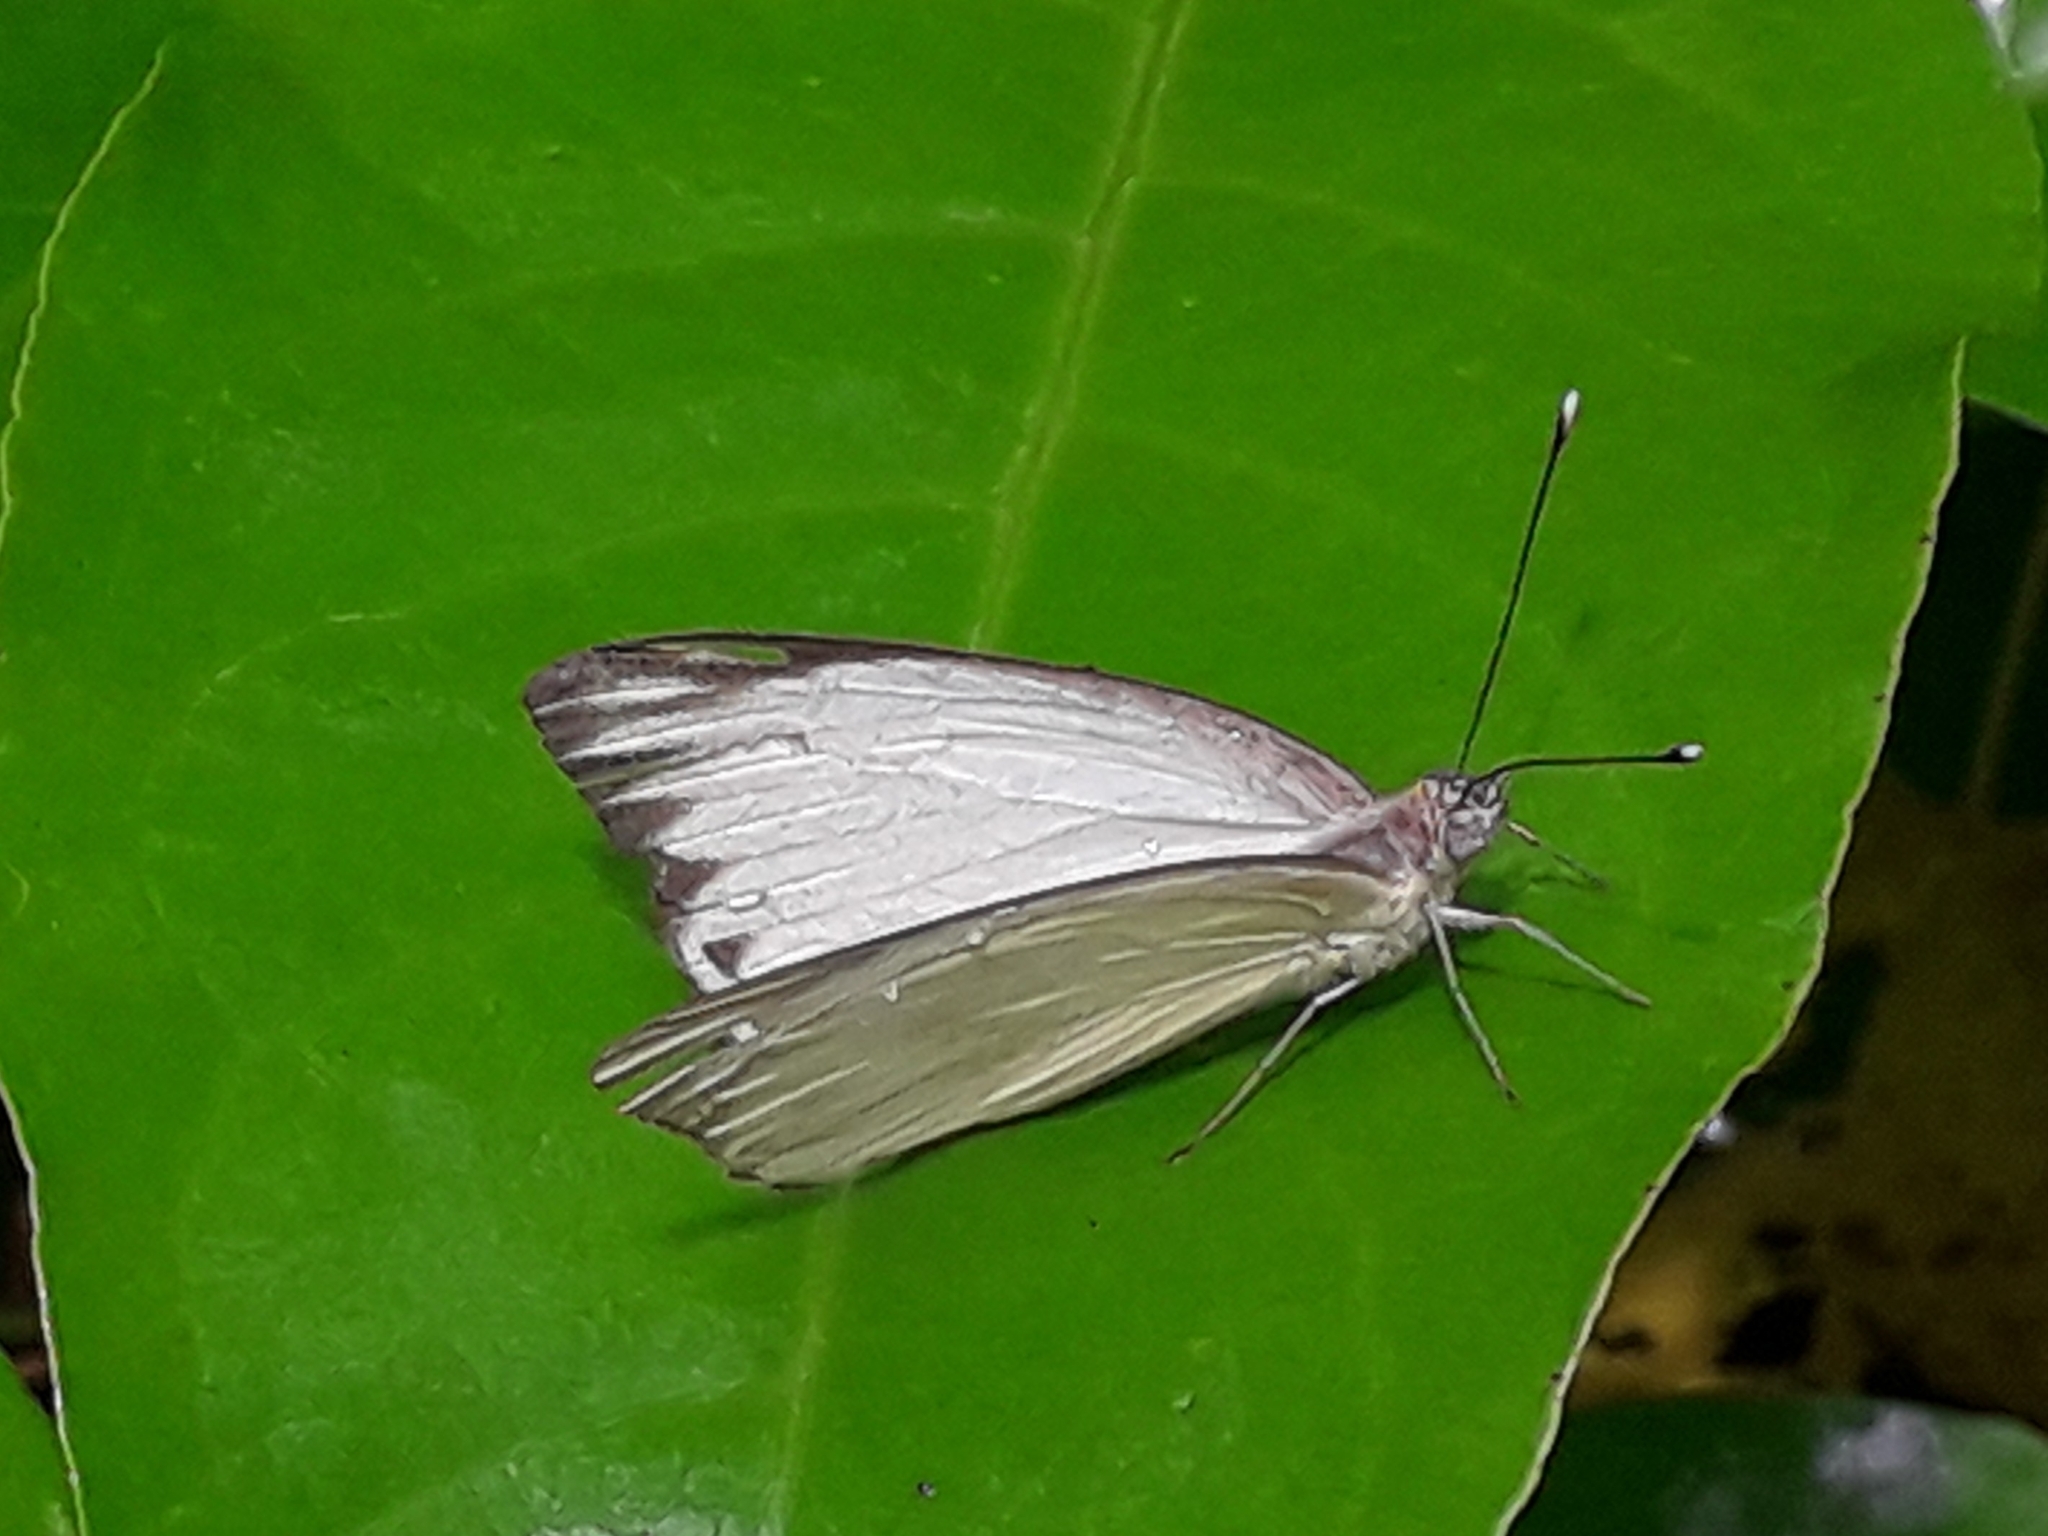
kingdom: Animalia
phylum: Arthropoda
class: Insecta
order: Lepidoptera
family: Pieridae
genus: Ascia
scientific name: Ascia monuste
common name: Great southern white
